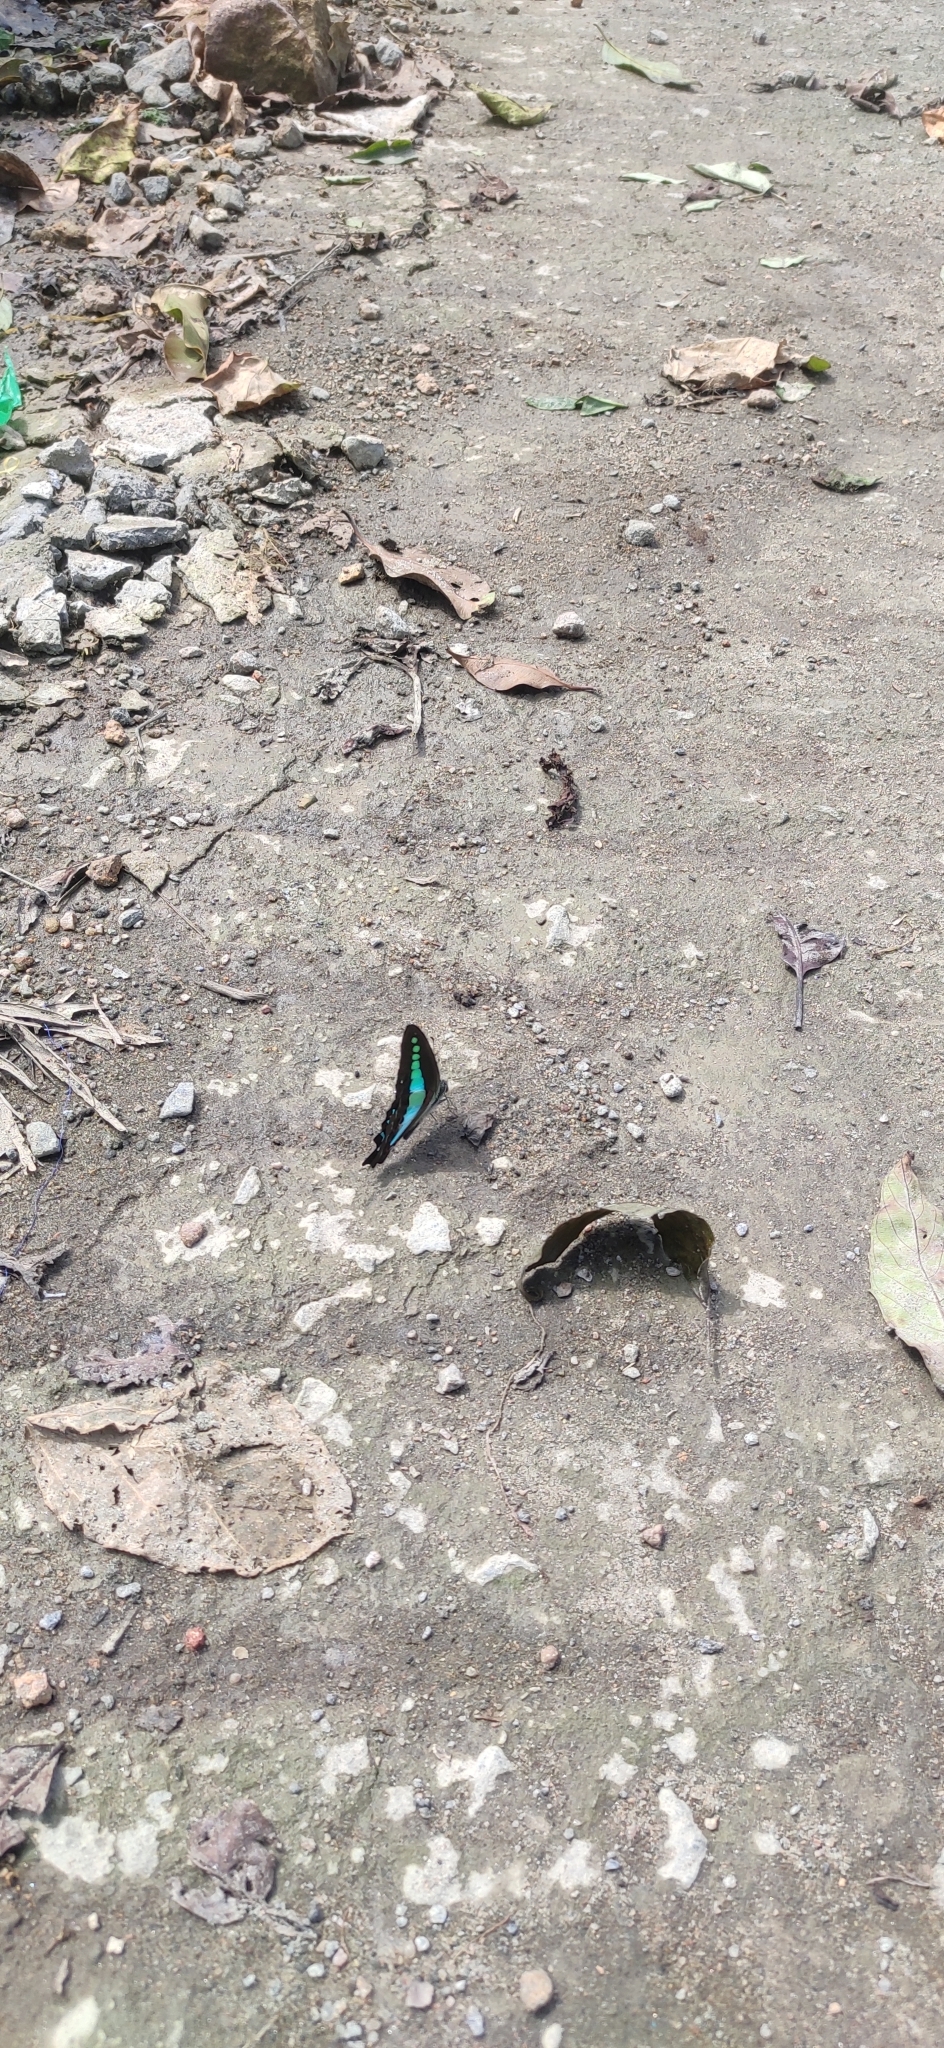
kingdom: Animalia
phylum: Arthropoda
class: Insecta
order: Lepidoptera
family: Papilionidae
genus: Graphium
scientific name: Graphium
